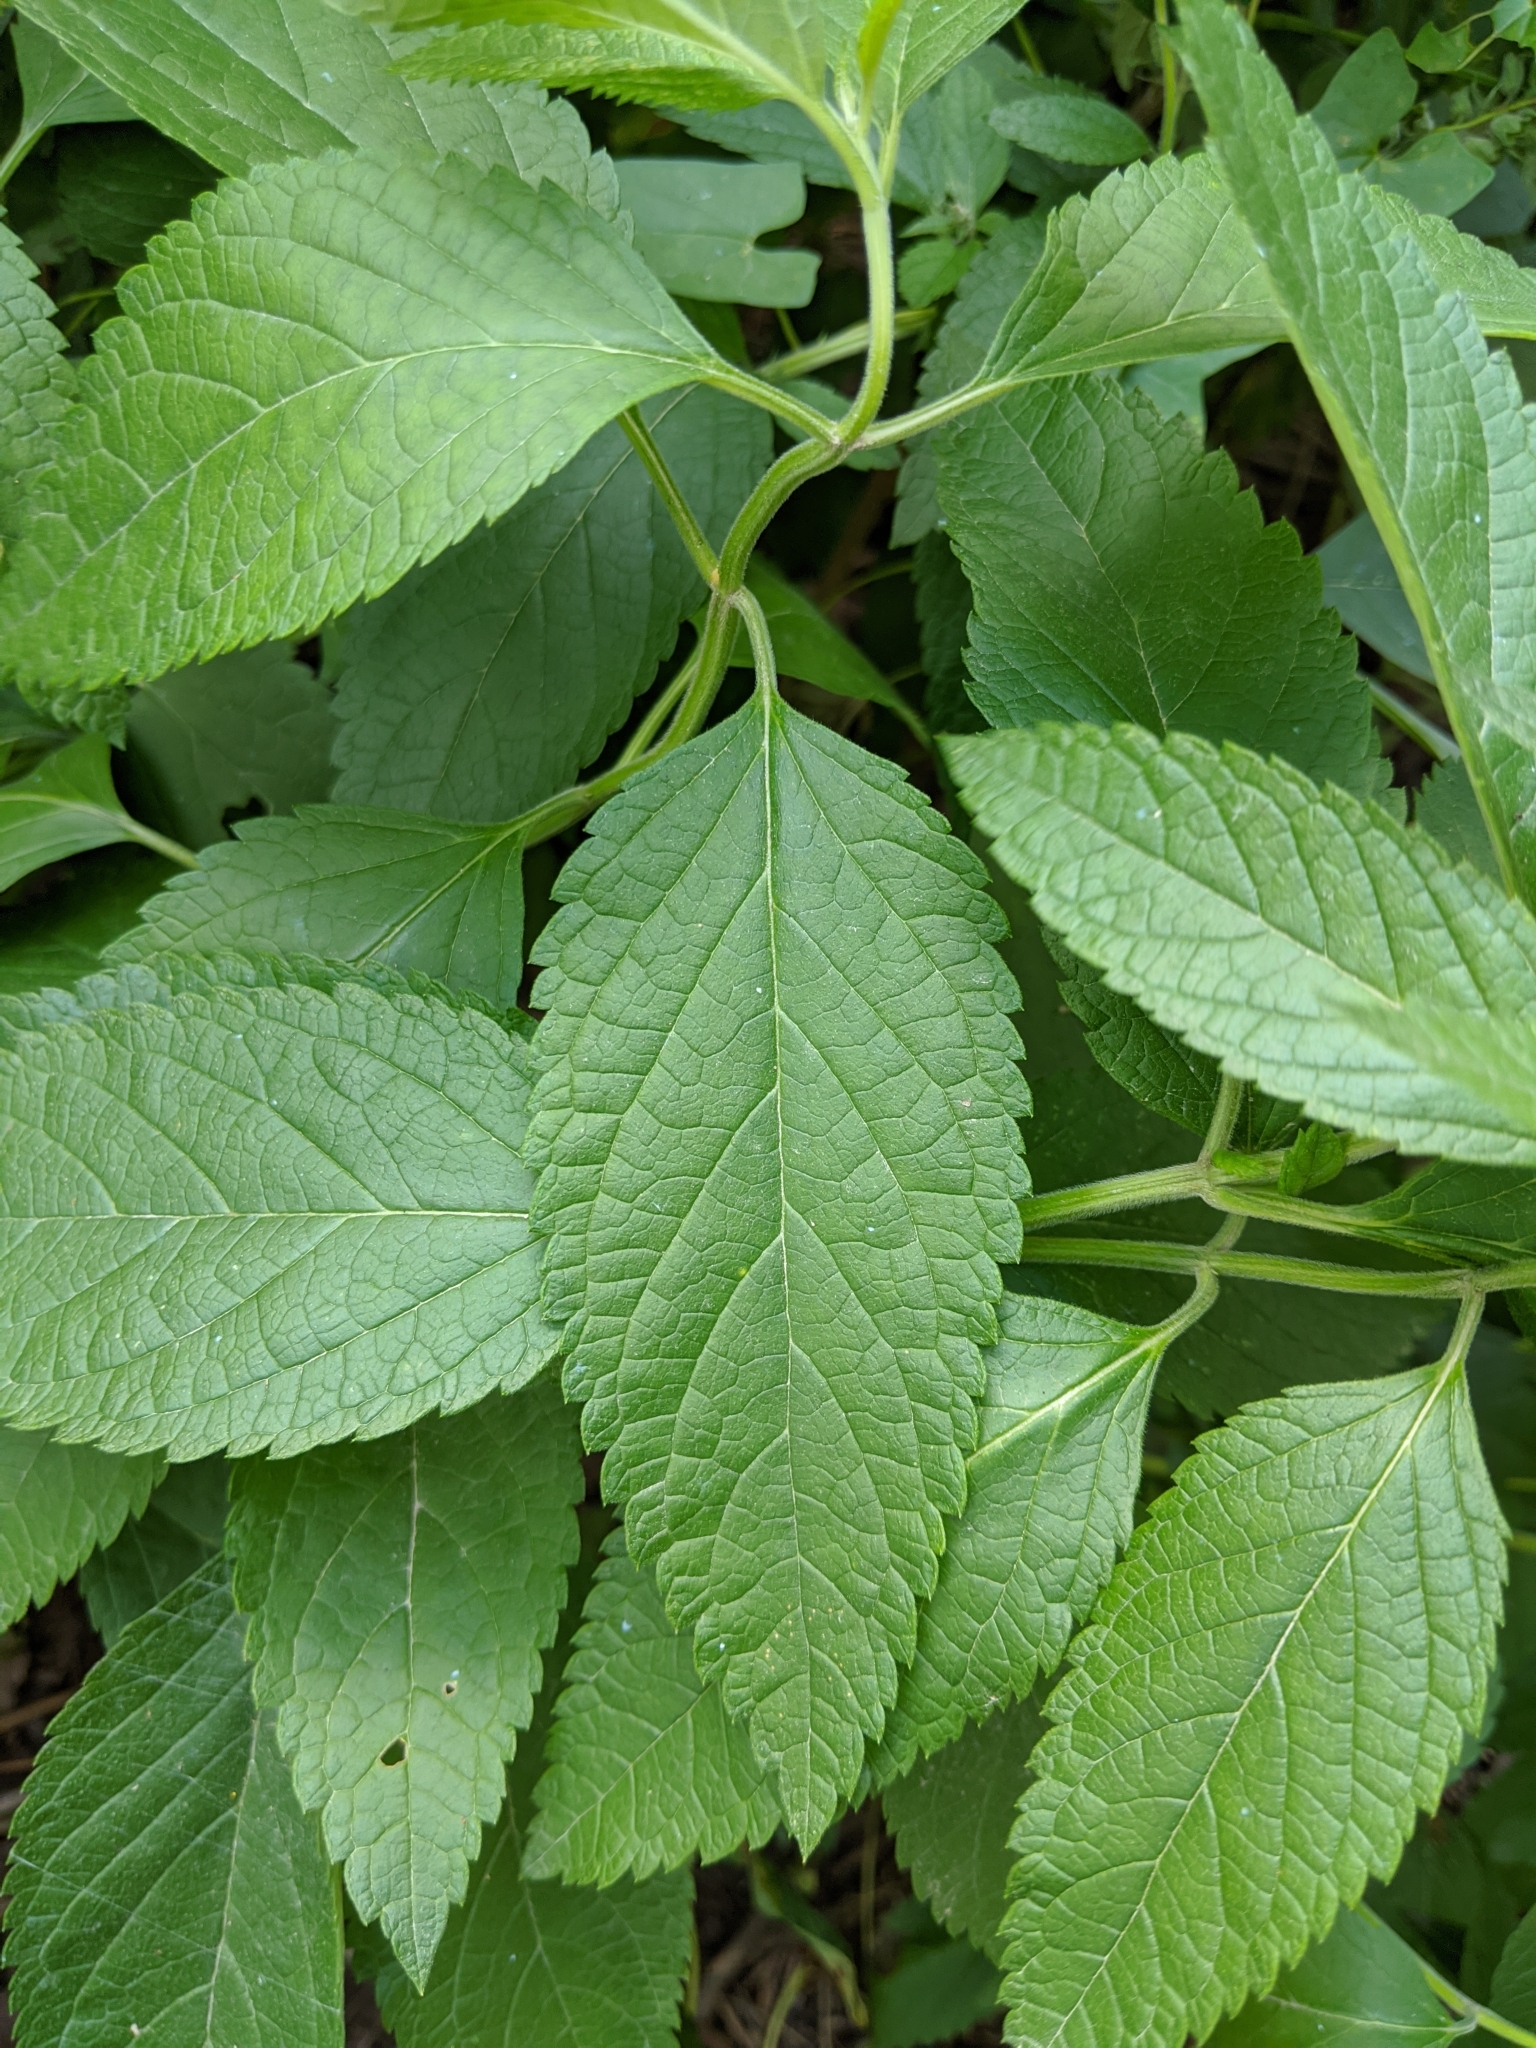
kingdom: Plantae
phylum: Tracheophyta
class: Magnoliopsida
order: Lamiales
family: Lamiaceae
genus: Teucrium
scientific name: Teucrium canadense
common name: American germander
